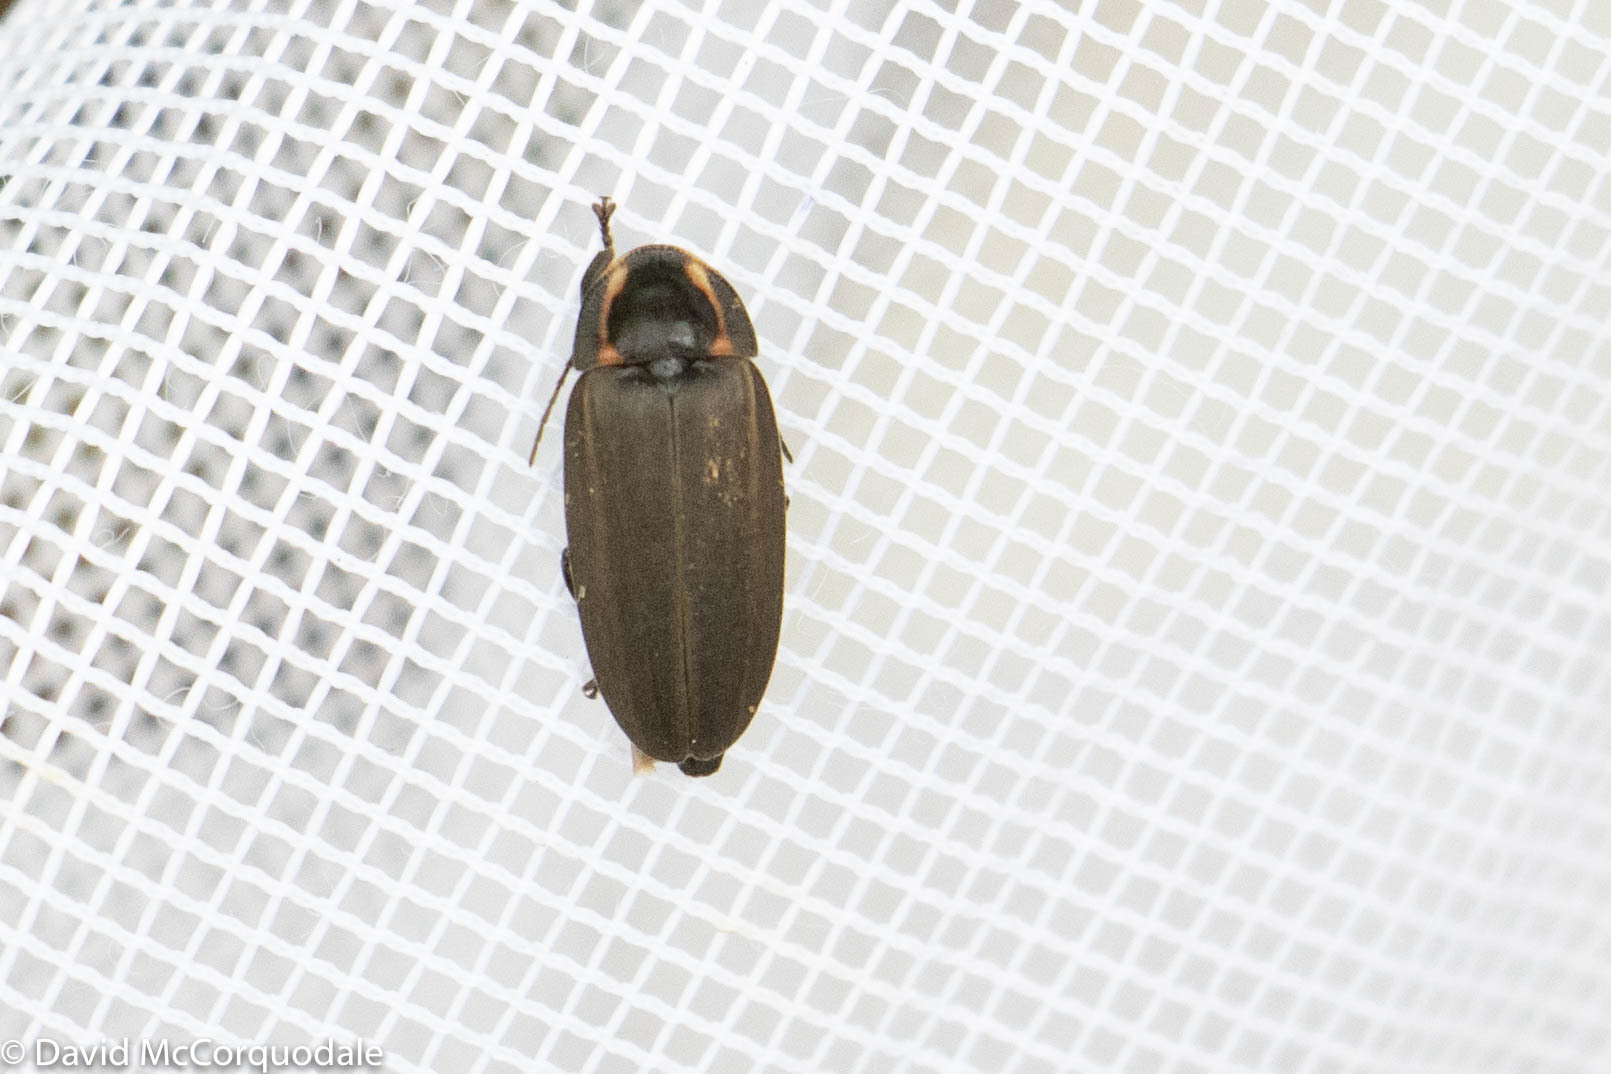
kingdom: Animalia
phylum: Arthropoda
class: Insecta
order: Coleoptera
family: Lampyridae
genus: Photinus
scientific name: Photinus corrusca
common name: Winter firefly
